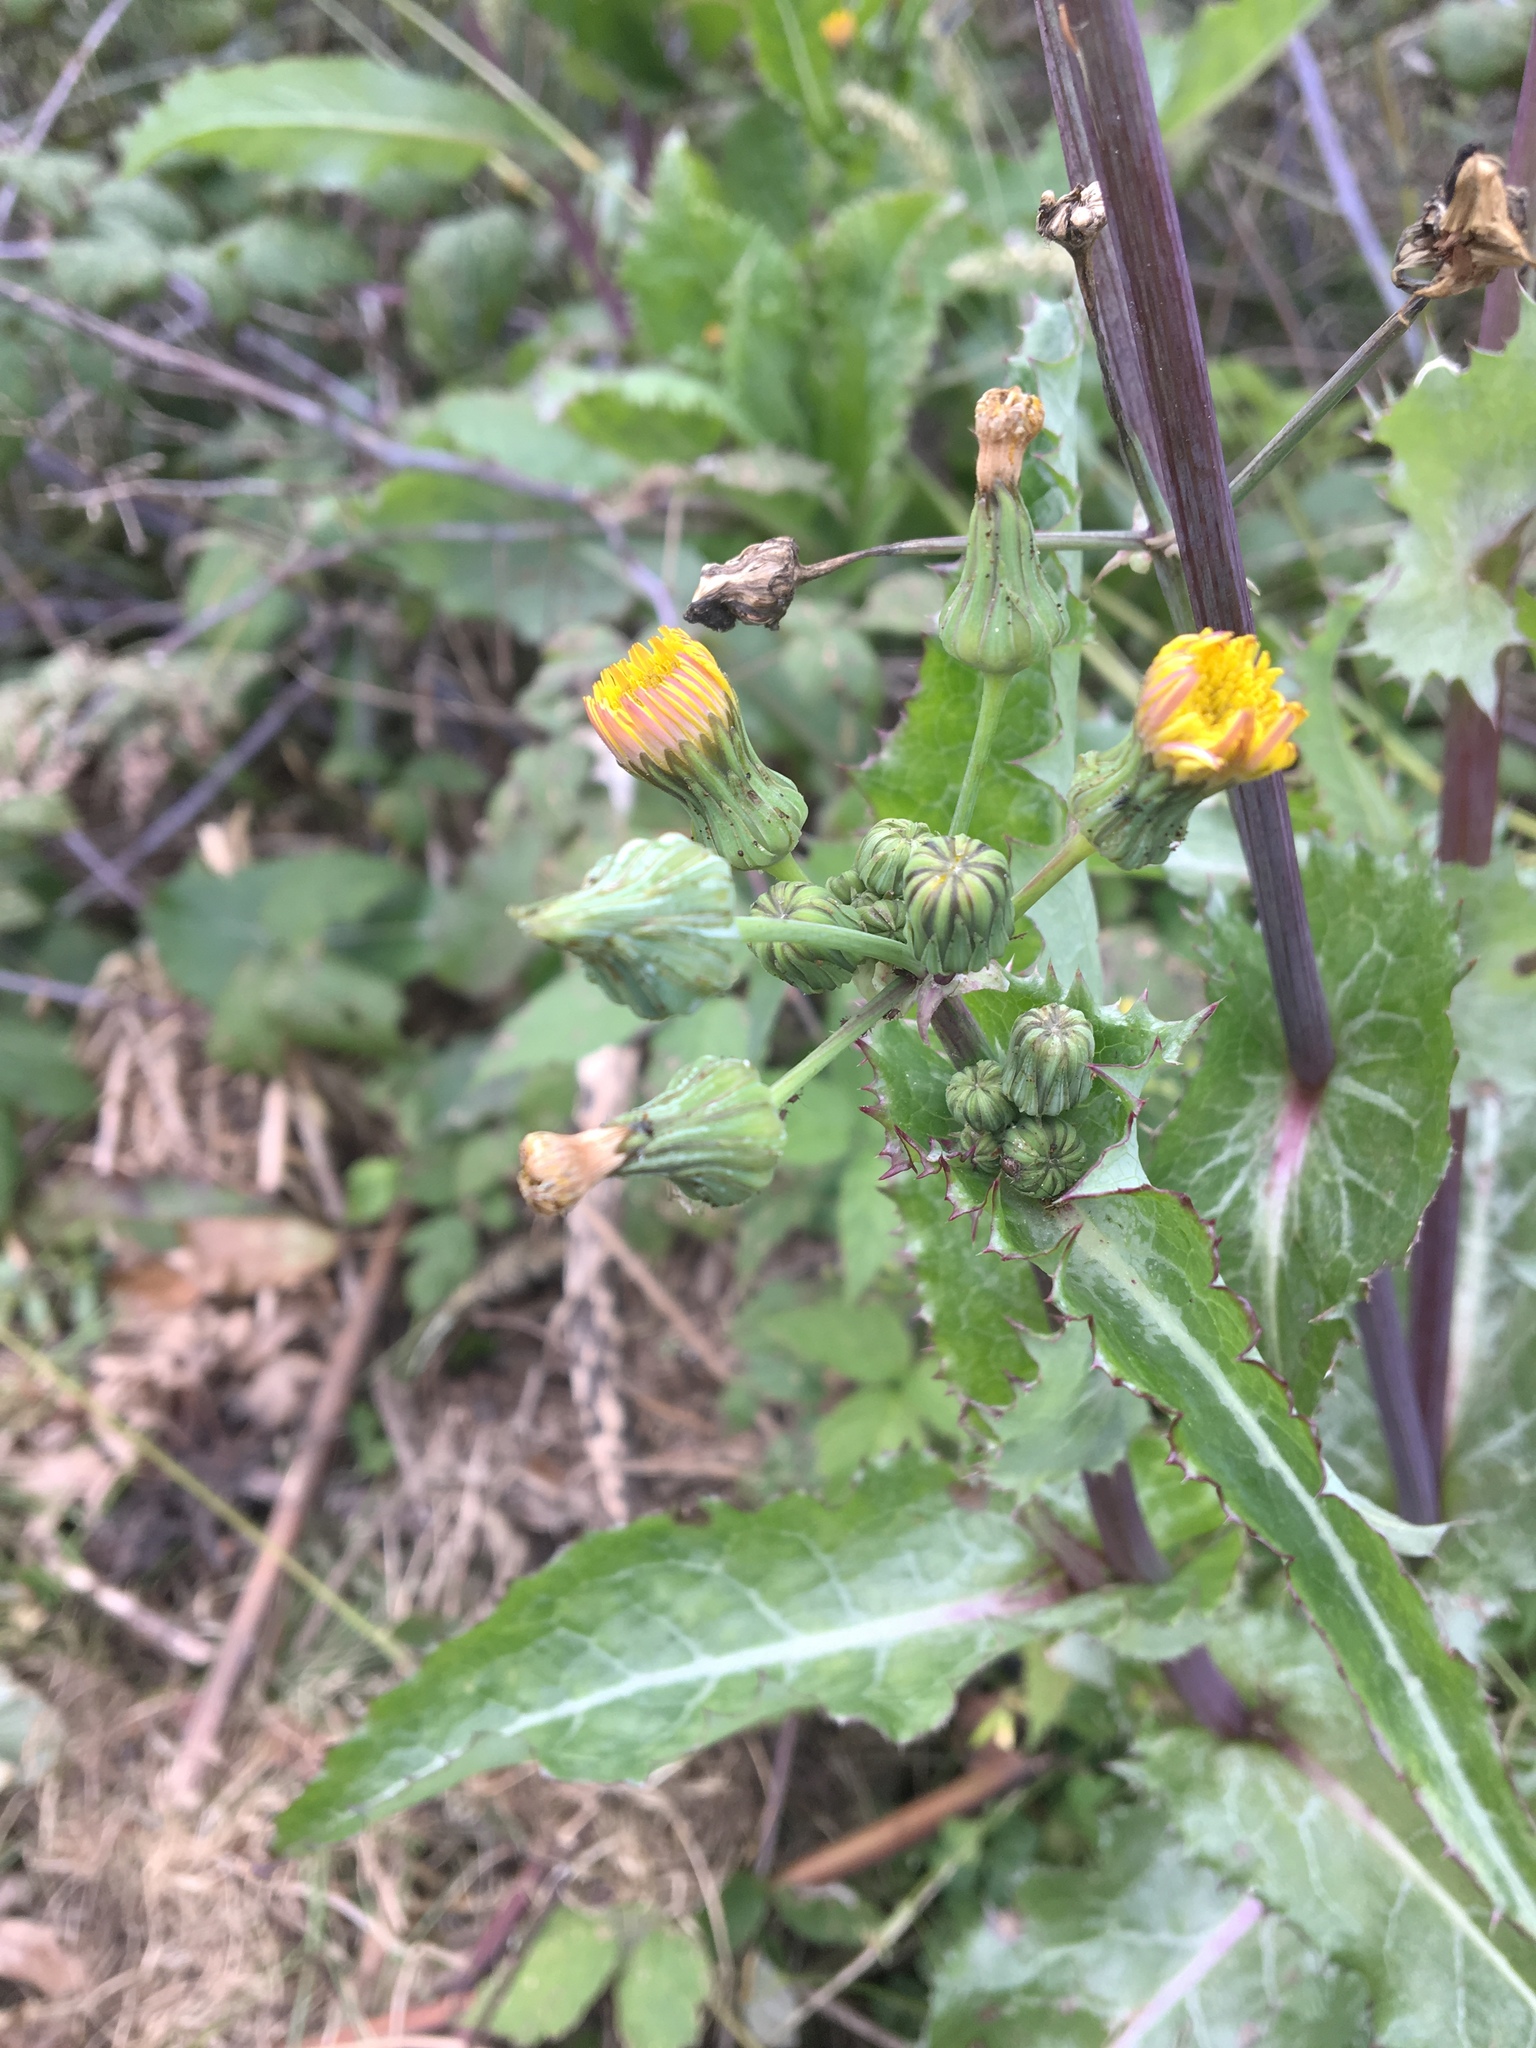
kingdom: Plantae
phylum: Tracheophyta
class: Magnoliopsida
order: Asterales
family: Asteraceae
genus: Sonchus
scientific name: Sonchus asper
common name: Prickly sow-thistle
